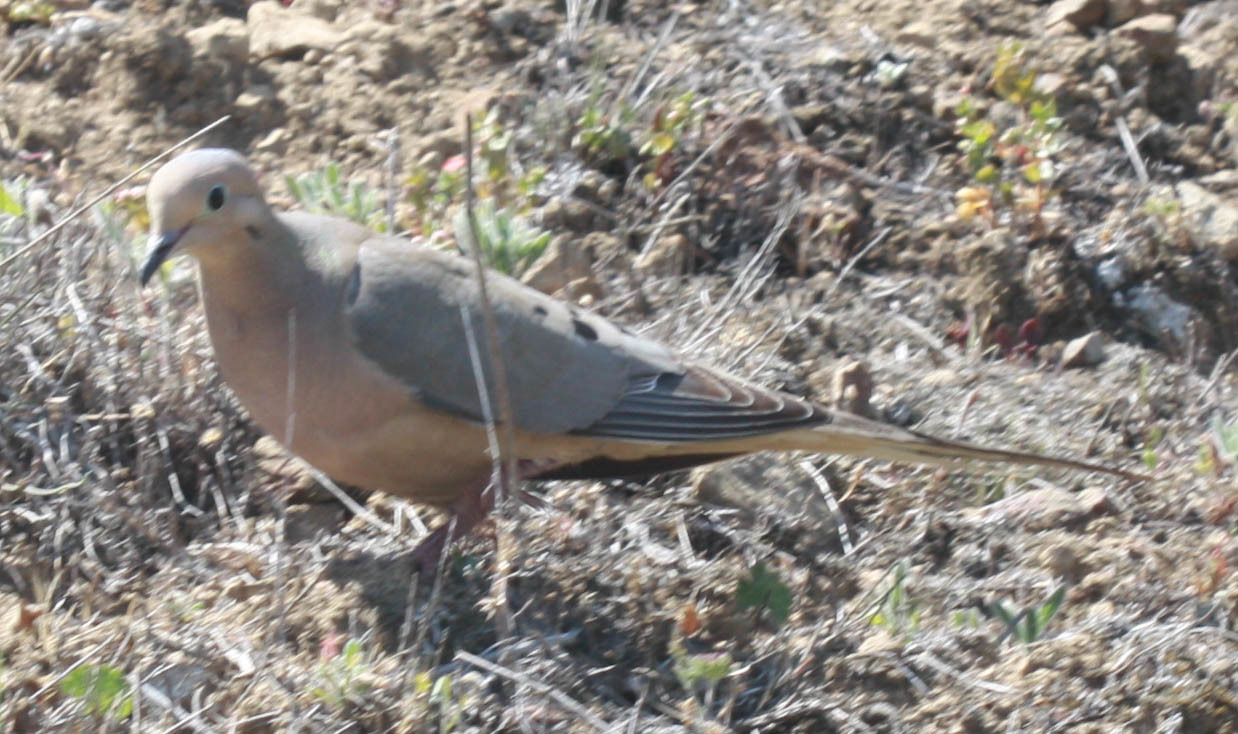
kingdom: Animalia
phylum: Chordata
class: Aves
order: Columbiformes
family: Columbidae
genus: Zenaida
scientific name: Zenaida macroura
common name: Mourning dove
